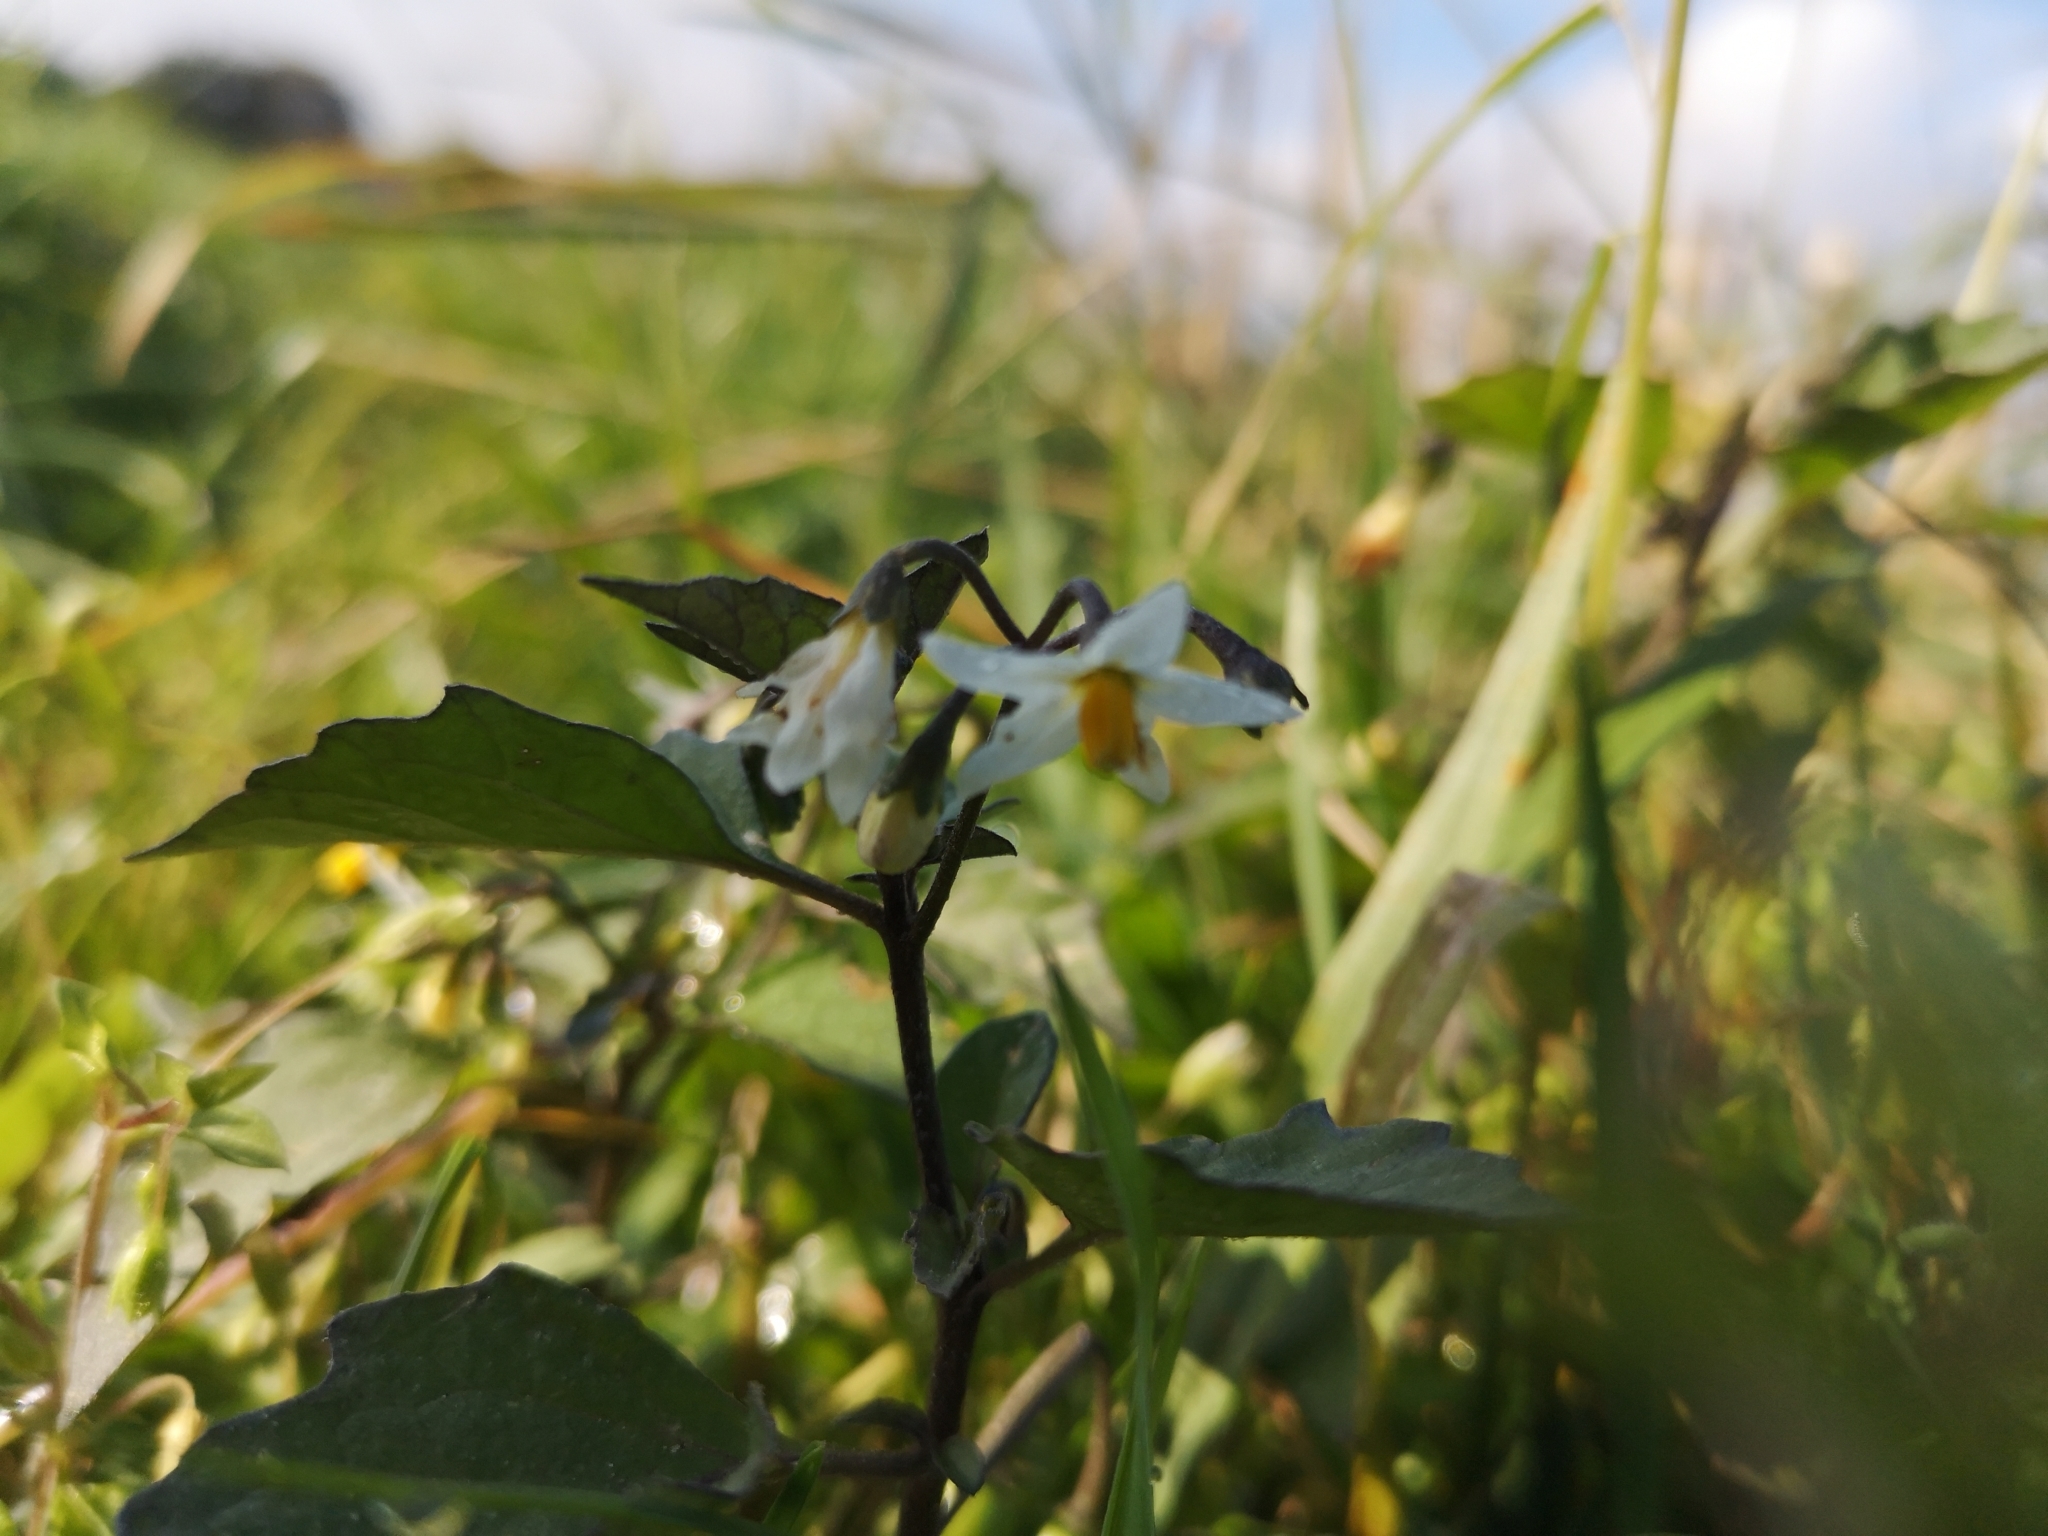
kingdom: Plantae
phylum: Tracheophyta
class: Magnoliopsida
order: Solanales
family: Solanaceae
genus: Solanum
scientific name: Solanum nigrum
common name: Black nightshade
